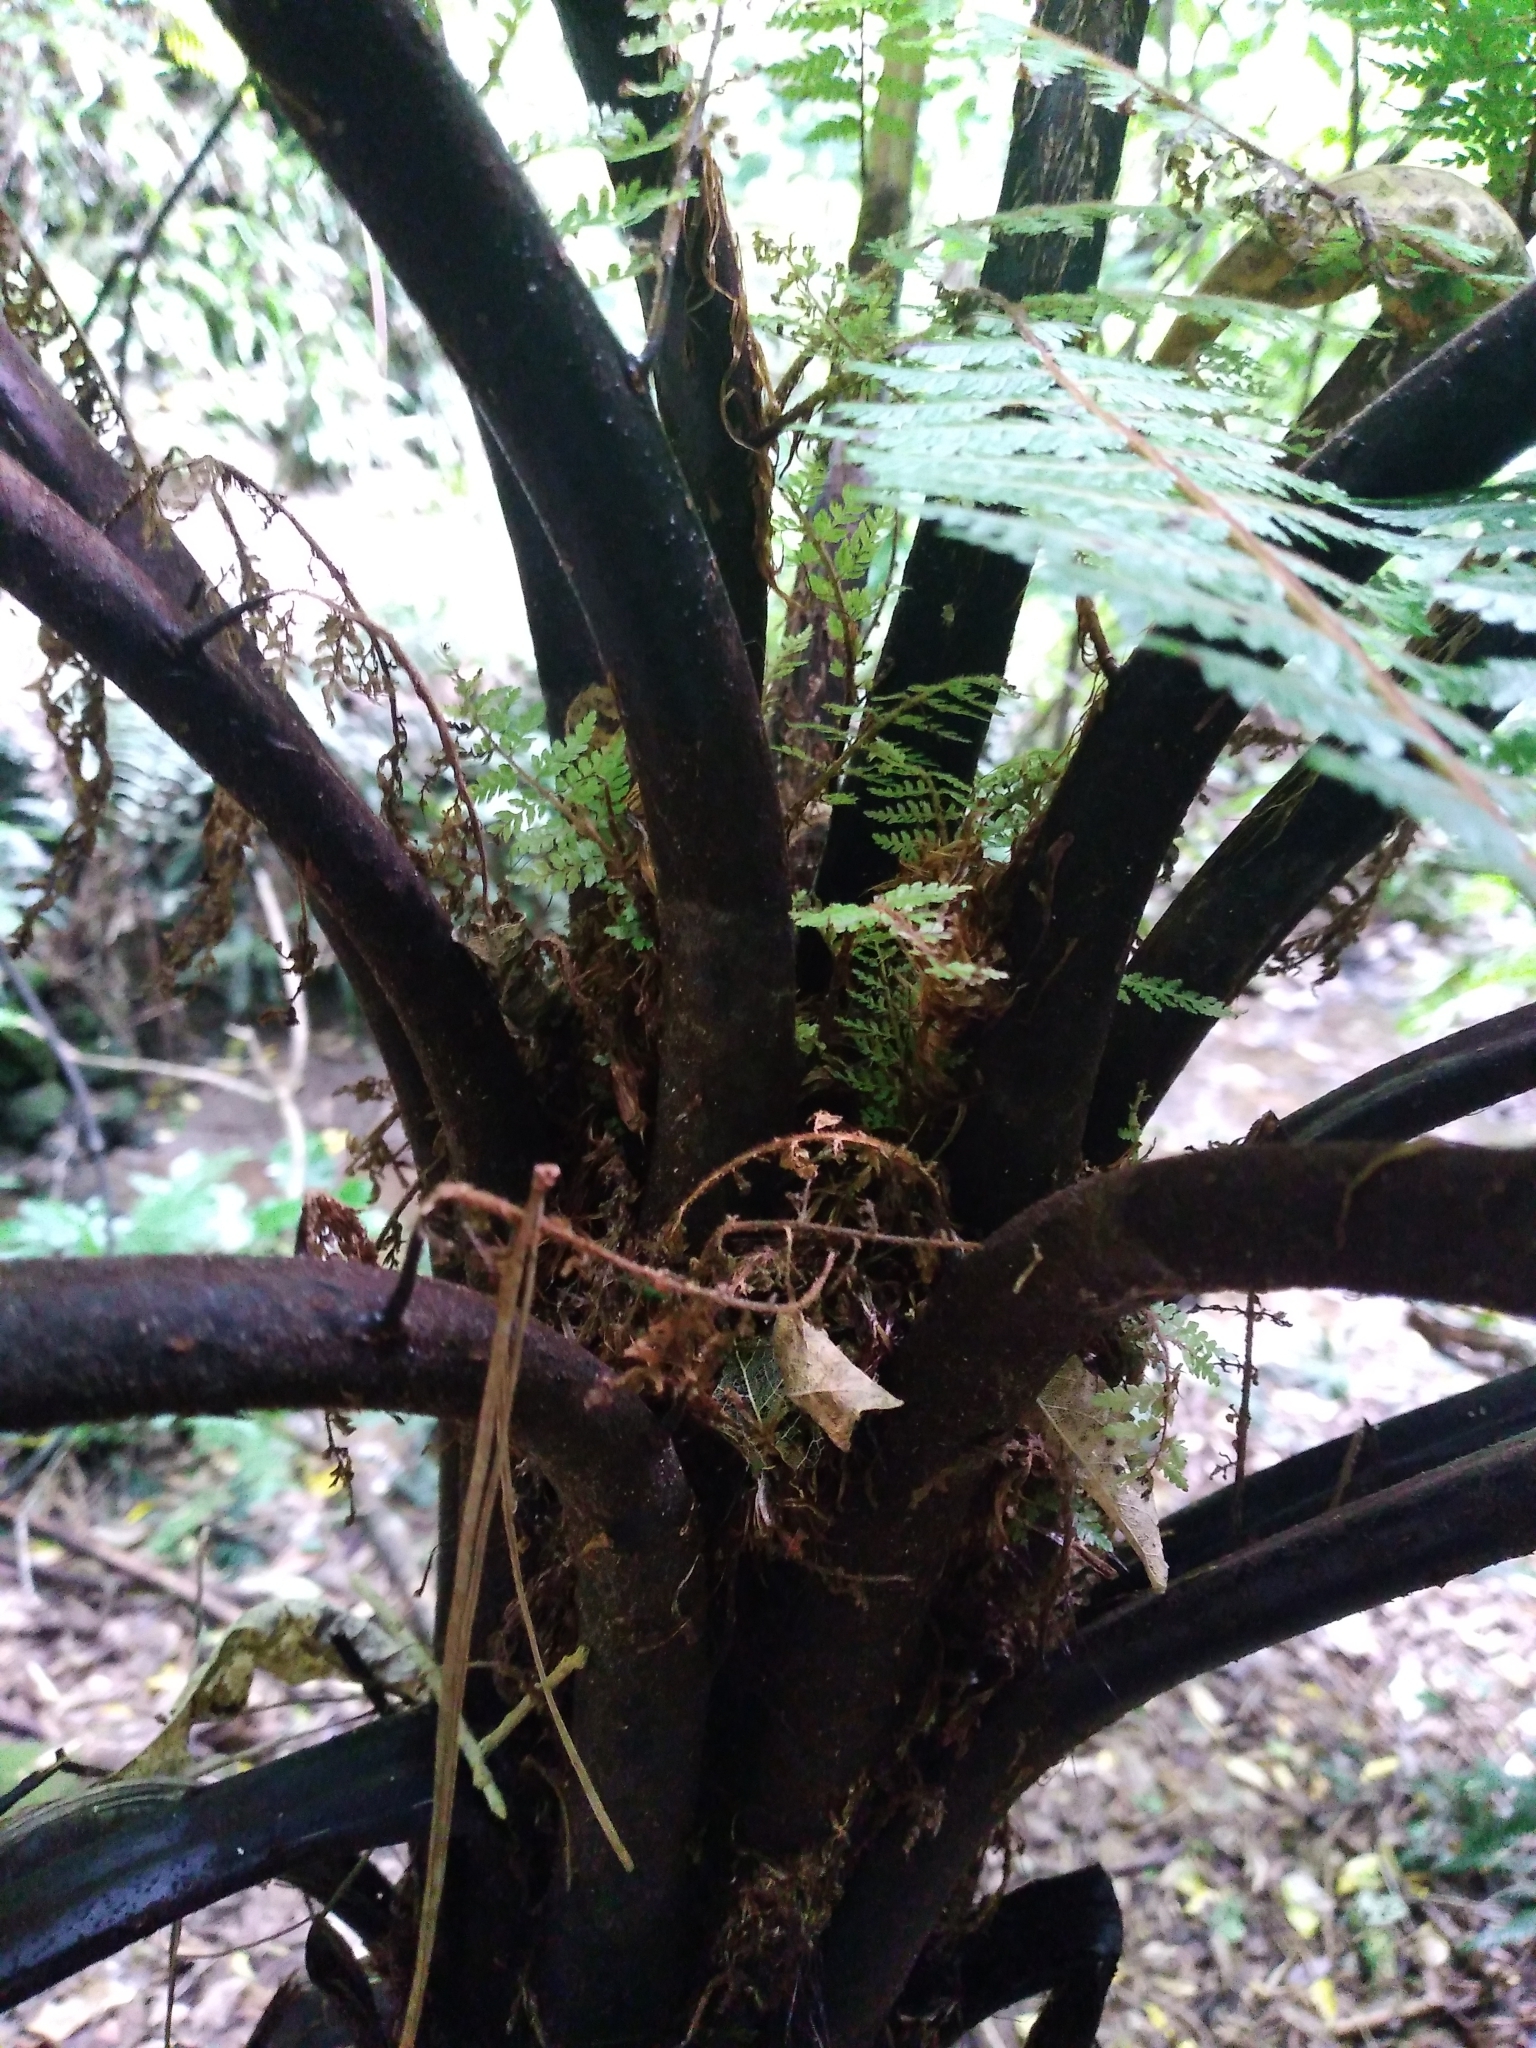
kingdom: Plantae
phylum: Tracheophyta
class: Polypodiopsida
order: Cyatheales
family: Cyatheaceae
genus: Cyathea
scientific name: Cyathea cunninghamii
